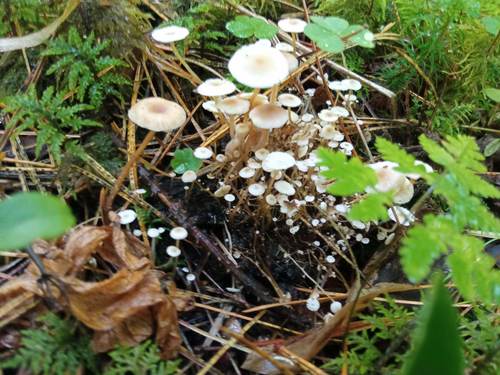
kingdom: Fungi
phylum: Basidiomycota
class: Agaricomycetes
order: Agaricales
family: Tricholomataceae
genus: Collybia
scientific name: Collybia cirrhata
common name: Piggyback shanklet
